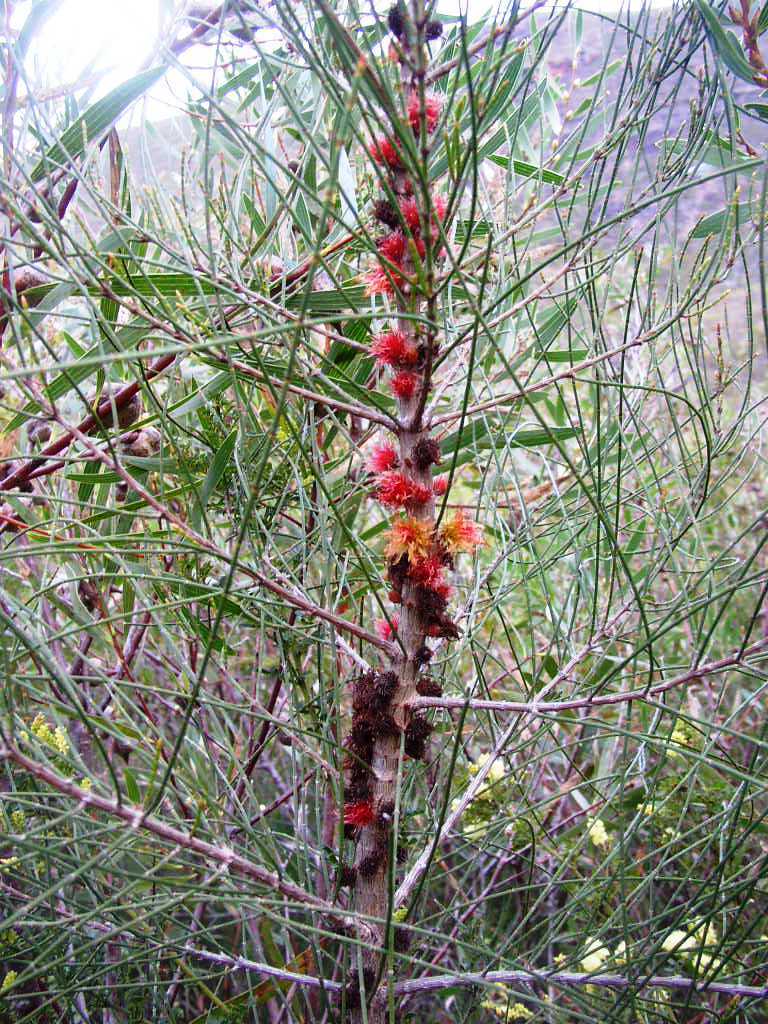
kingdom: Plantae
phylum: Tracheophyta
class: Magnoliopsida
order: Fagales
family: Casuarinaceae
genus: Allocasuarina
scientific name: Allocasuarina trichodon
